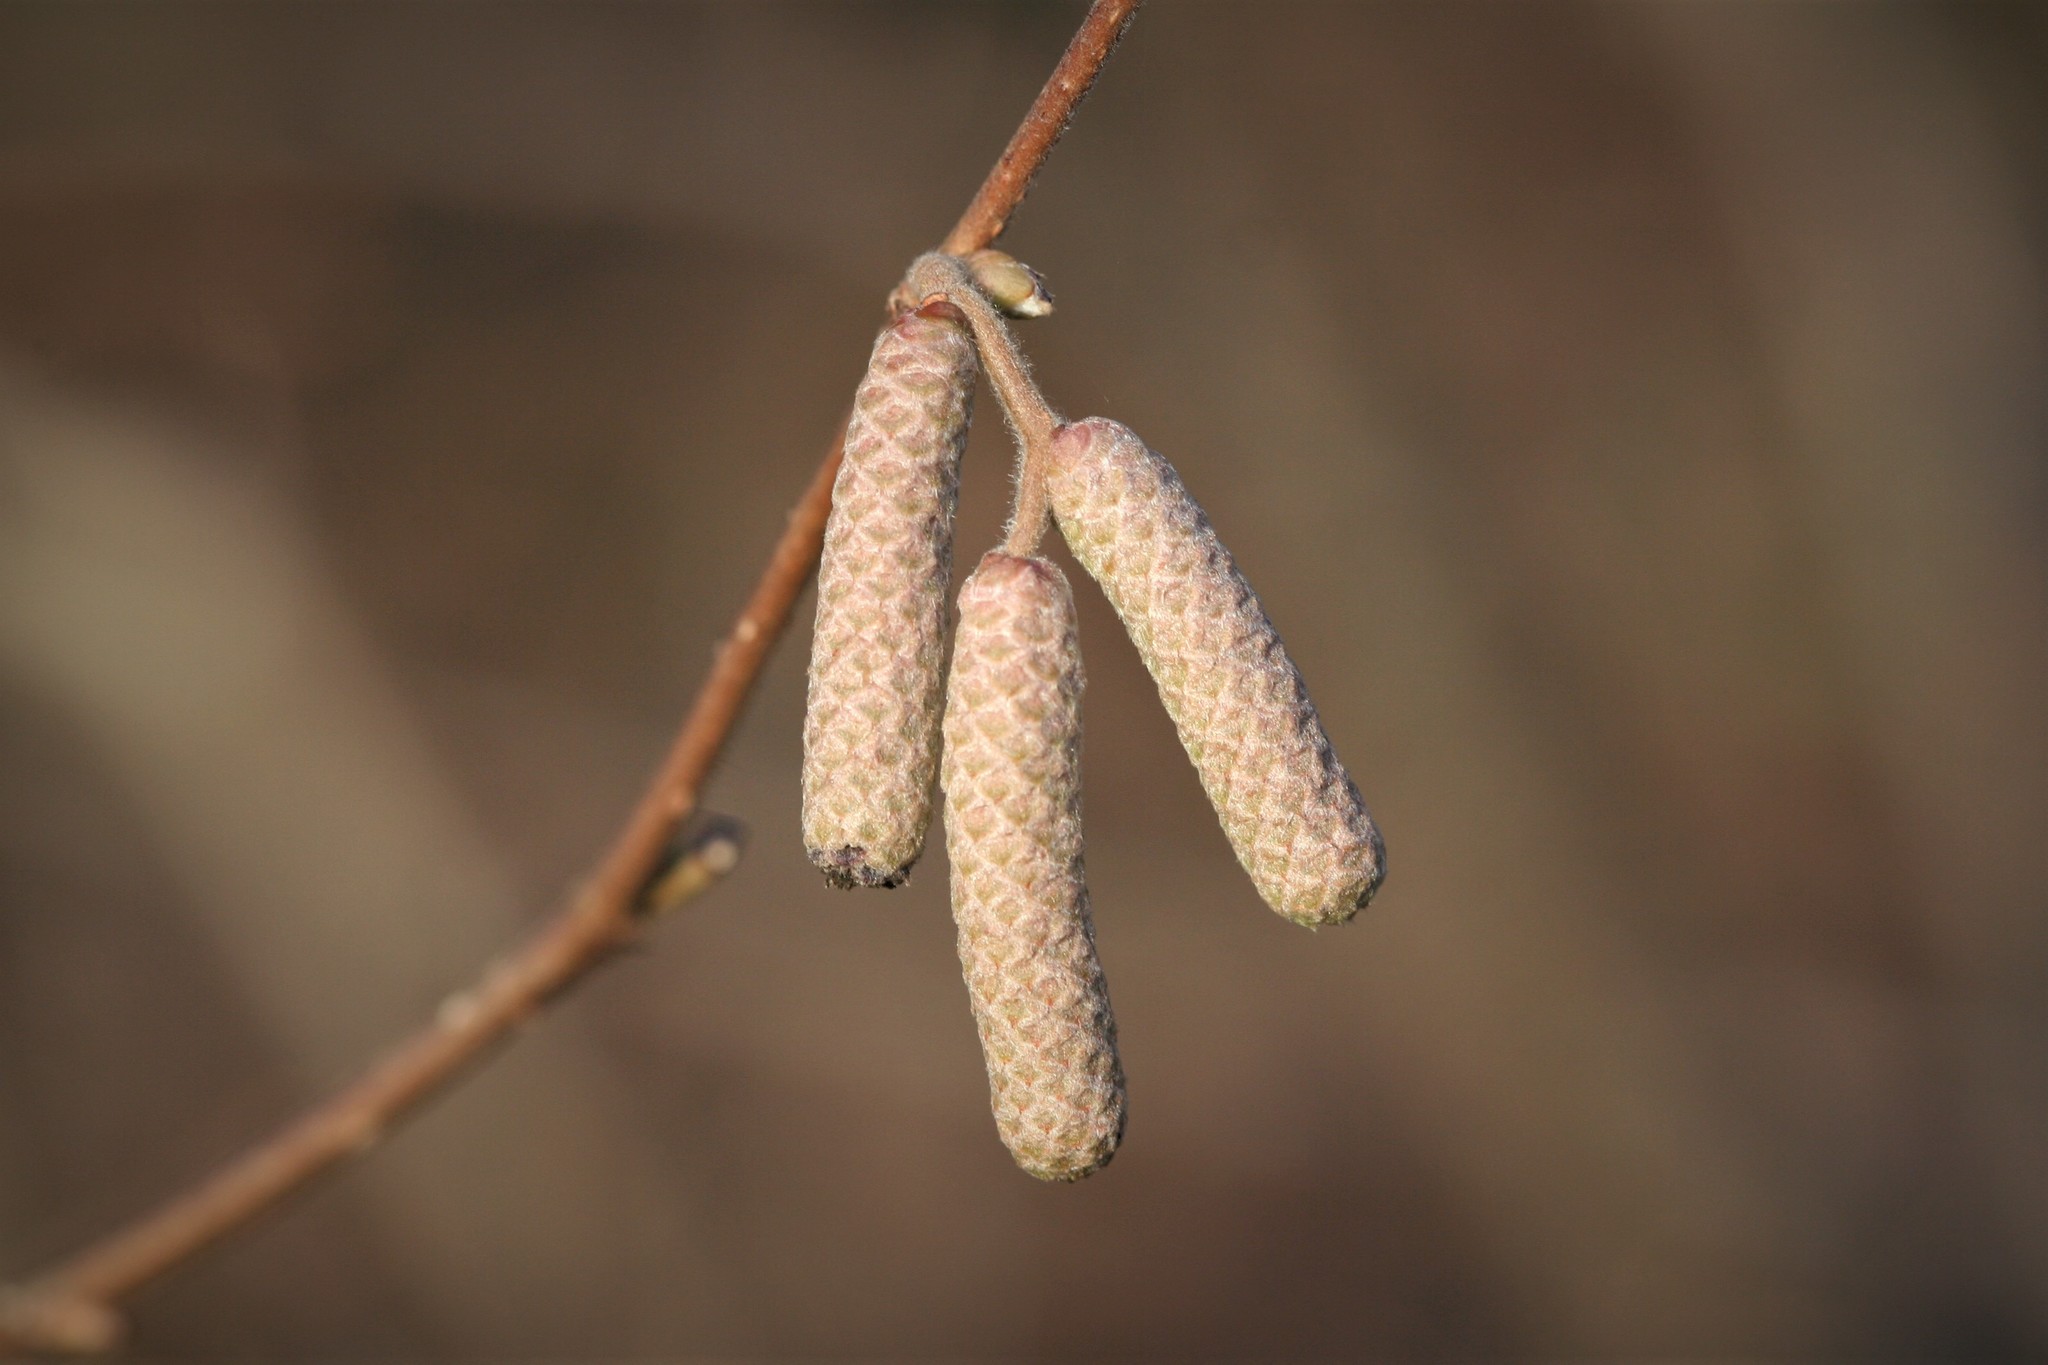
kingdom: Plantae
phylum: Tracheophyta
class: Magnoliopsida
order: Fagales
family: Betulaceae
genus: Corylus
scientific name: Corylus avellana
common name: European hazel
